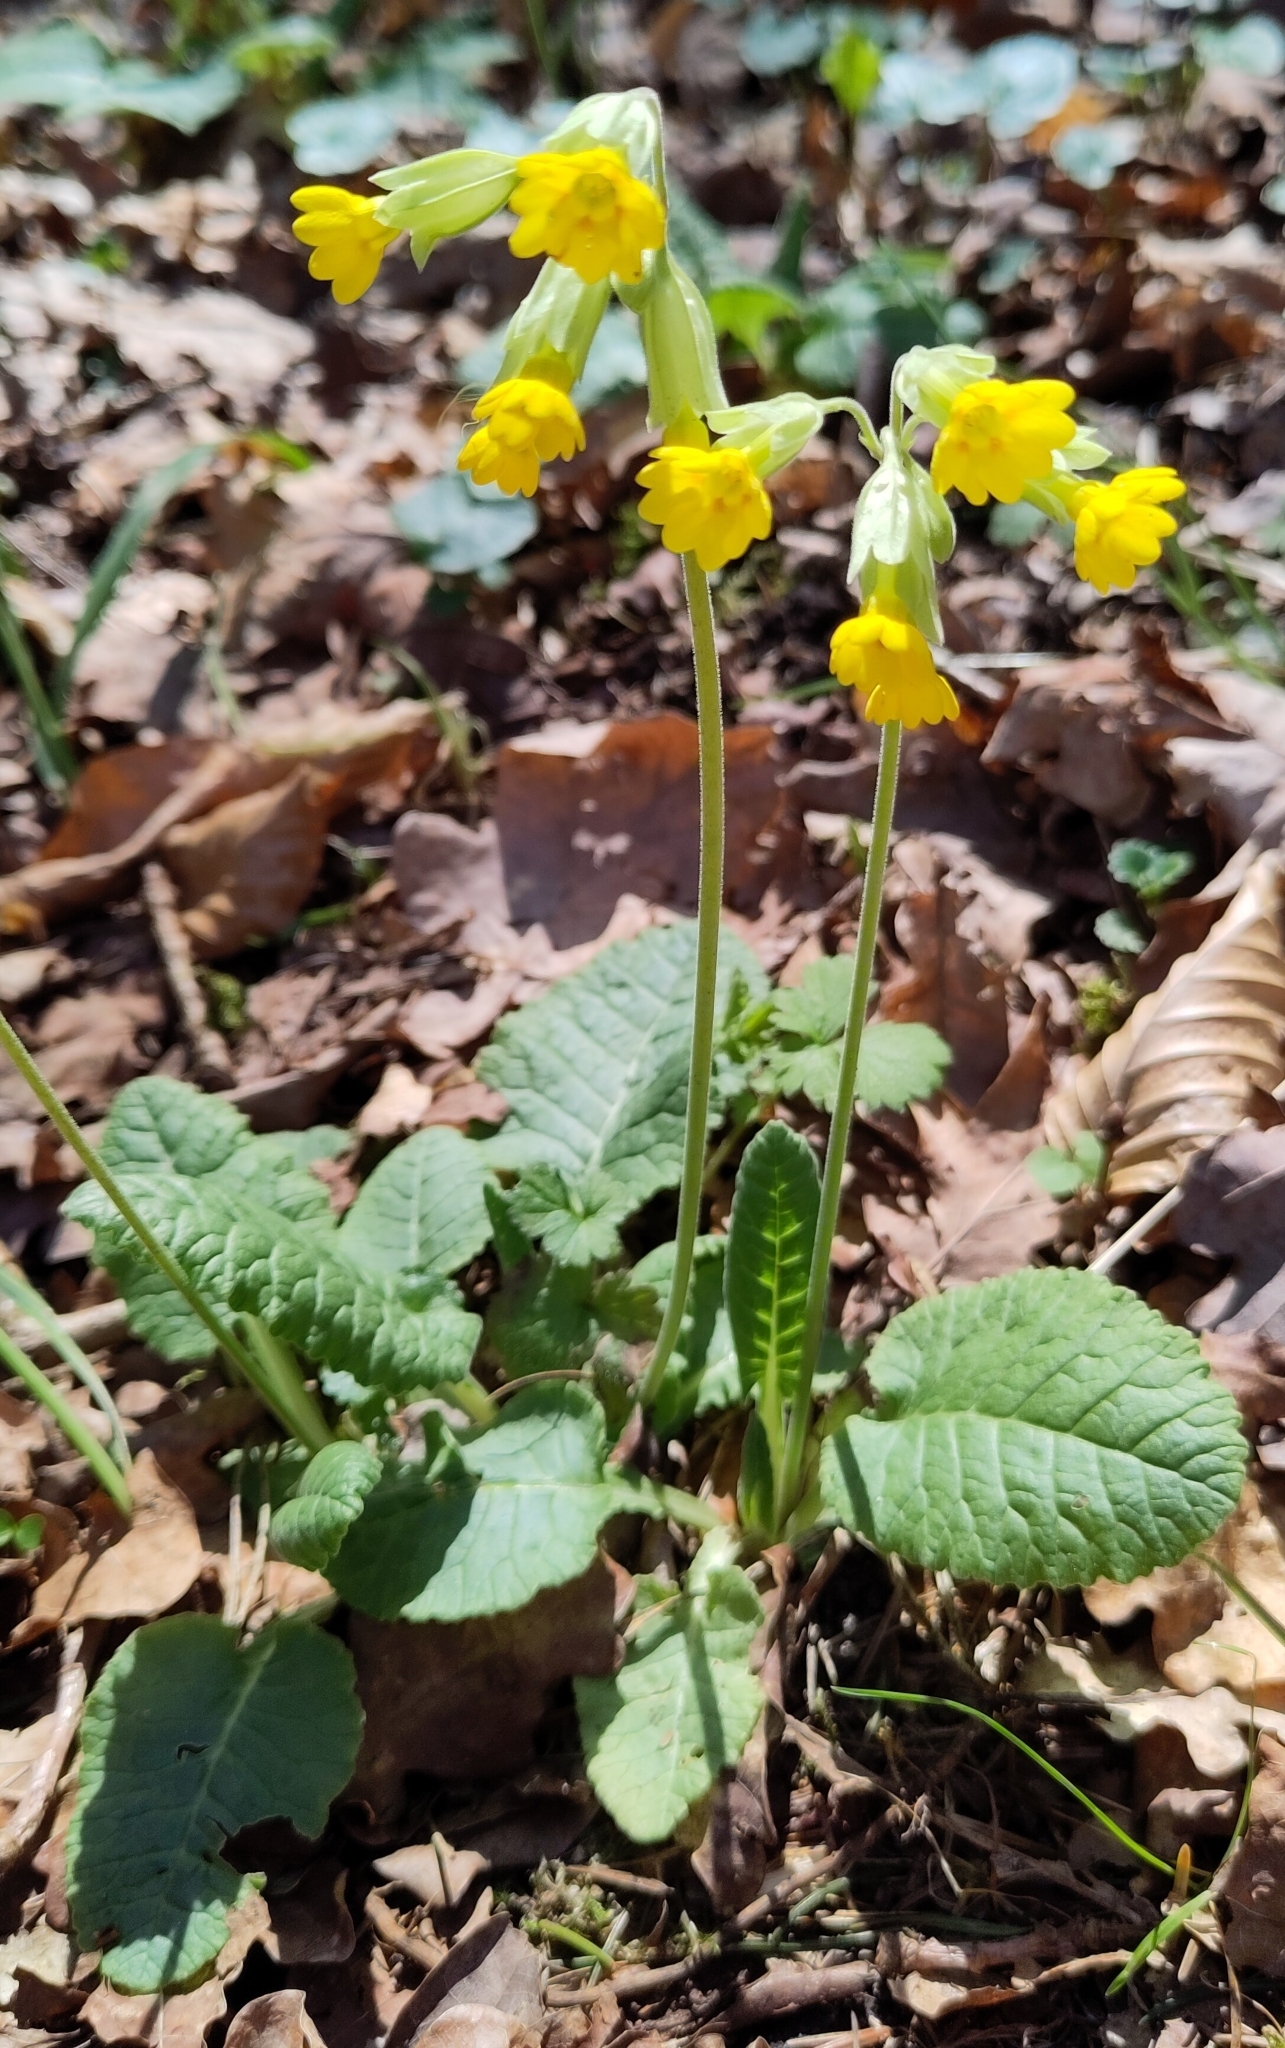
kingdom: Plantae
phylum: Tracheophyta
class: Magnoliopsida
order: Ericales
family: Primulaceae
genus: Primula
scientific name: Primula veris
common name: Cowslip
